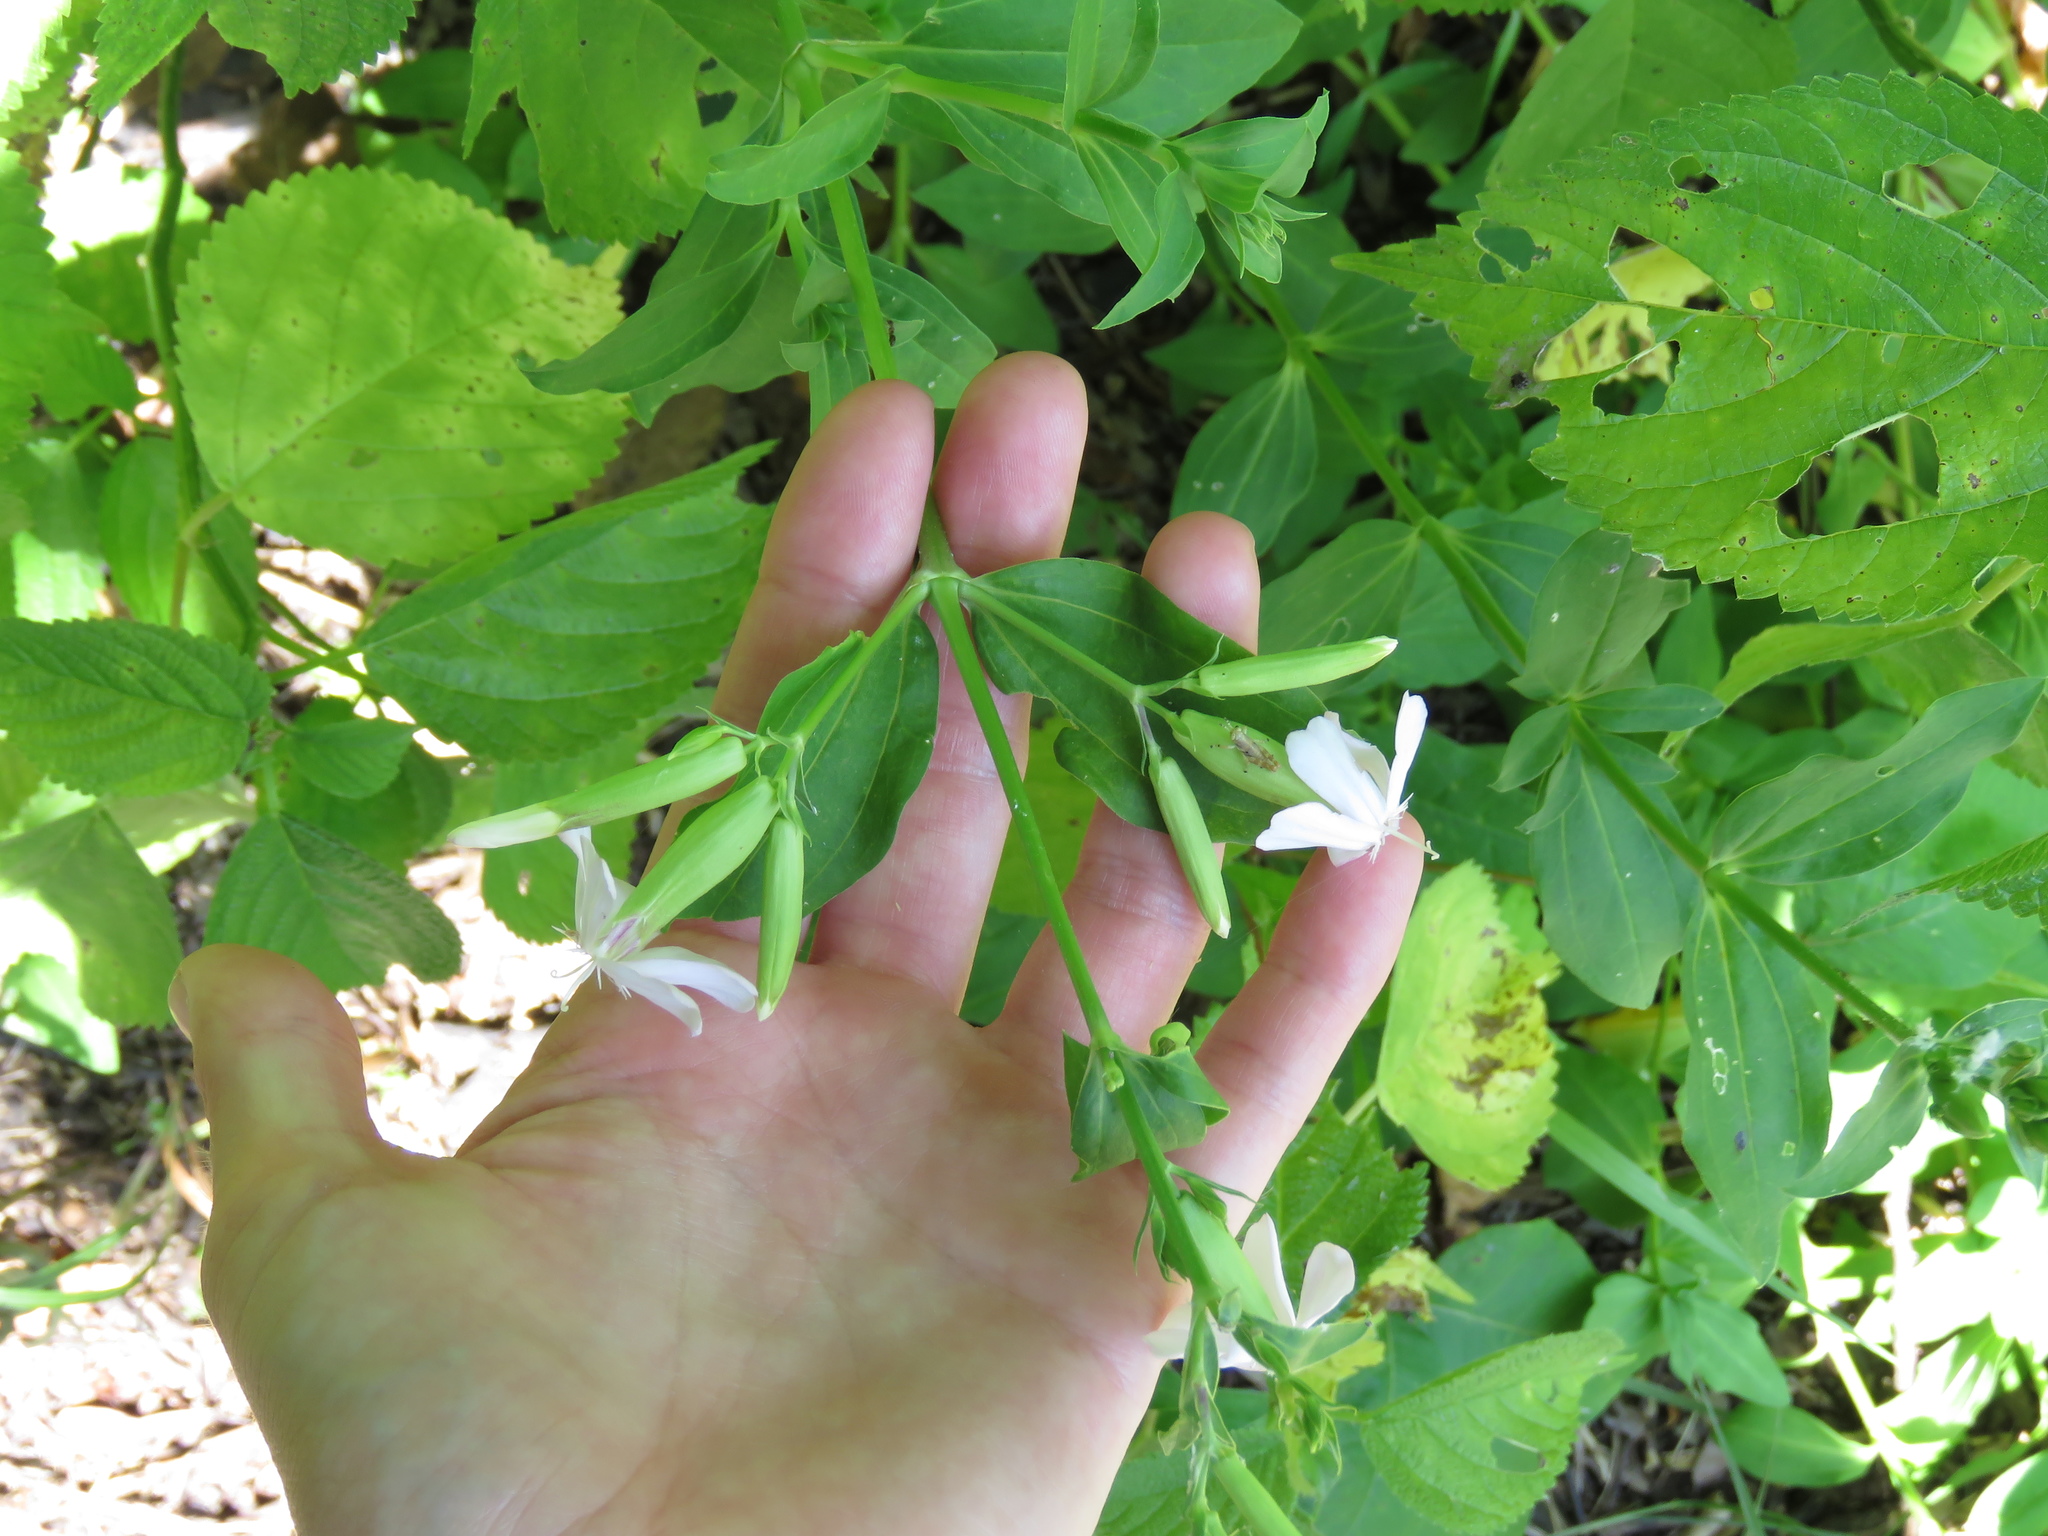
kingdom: Plantae
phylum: Tracheophyta
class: Magnoliopsida
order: Caryophyllales
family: Caryophyllaceae
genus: Saponaria
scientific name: Saponaria officinalis
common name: Soapwort
